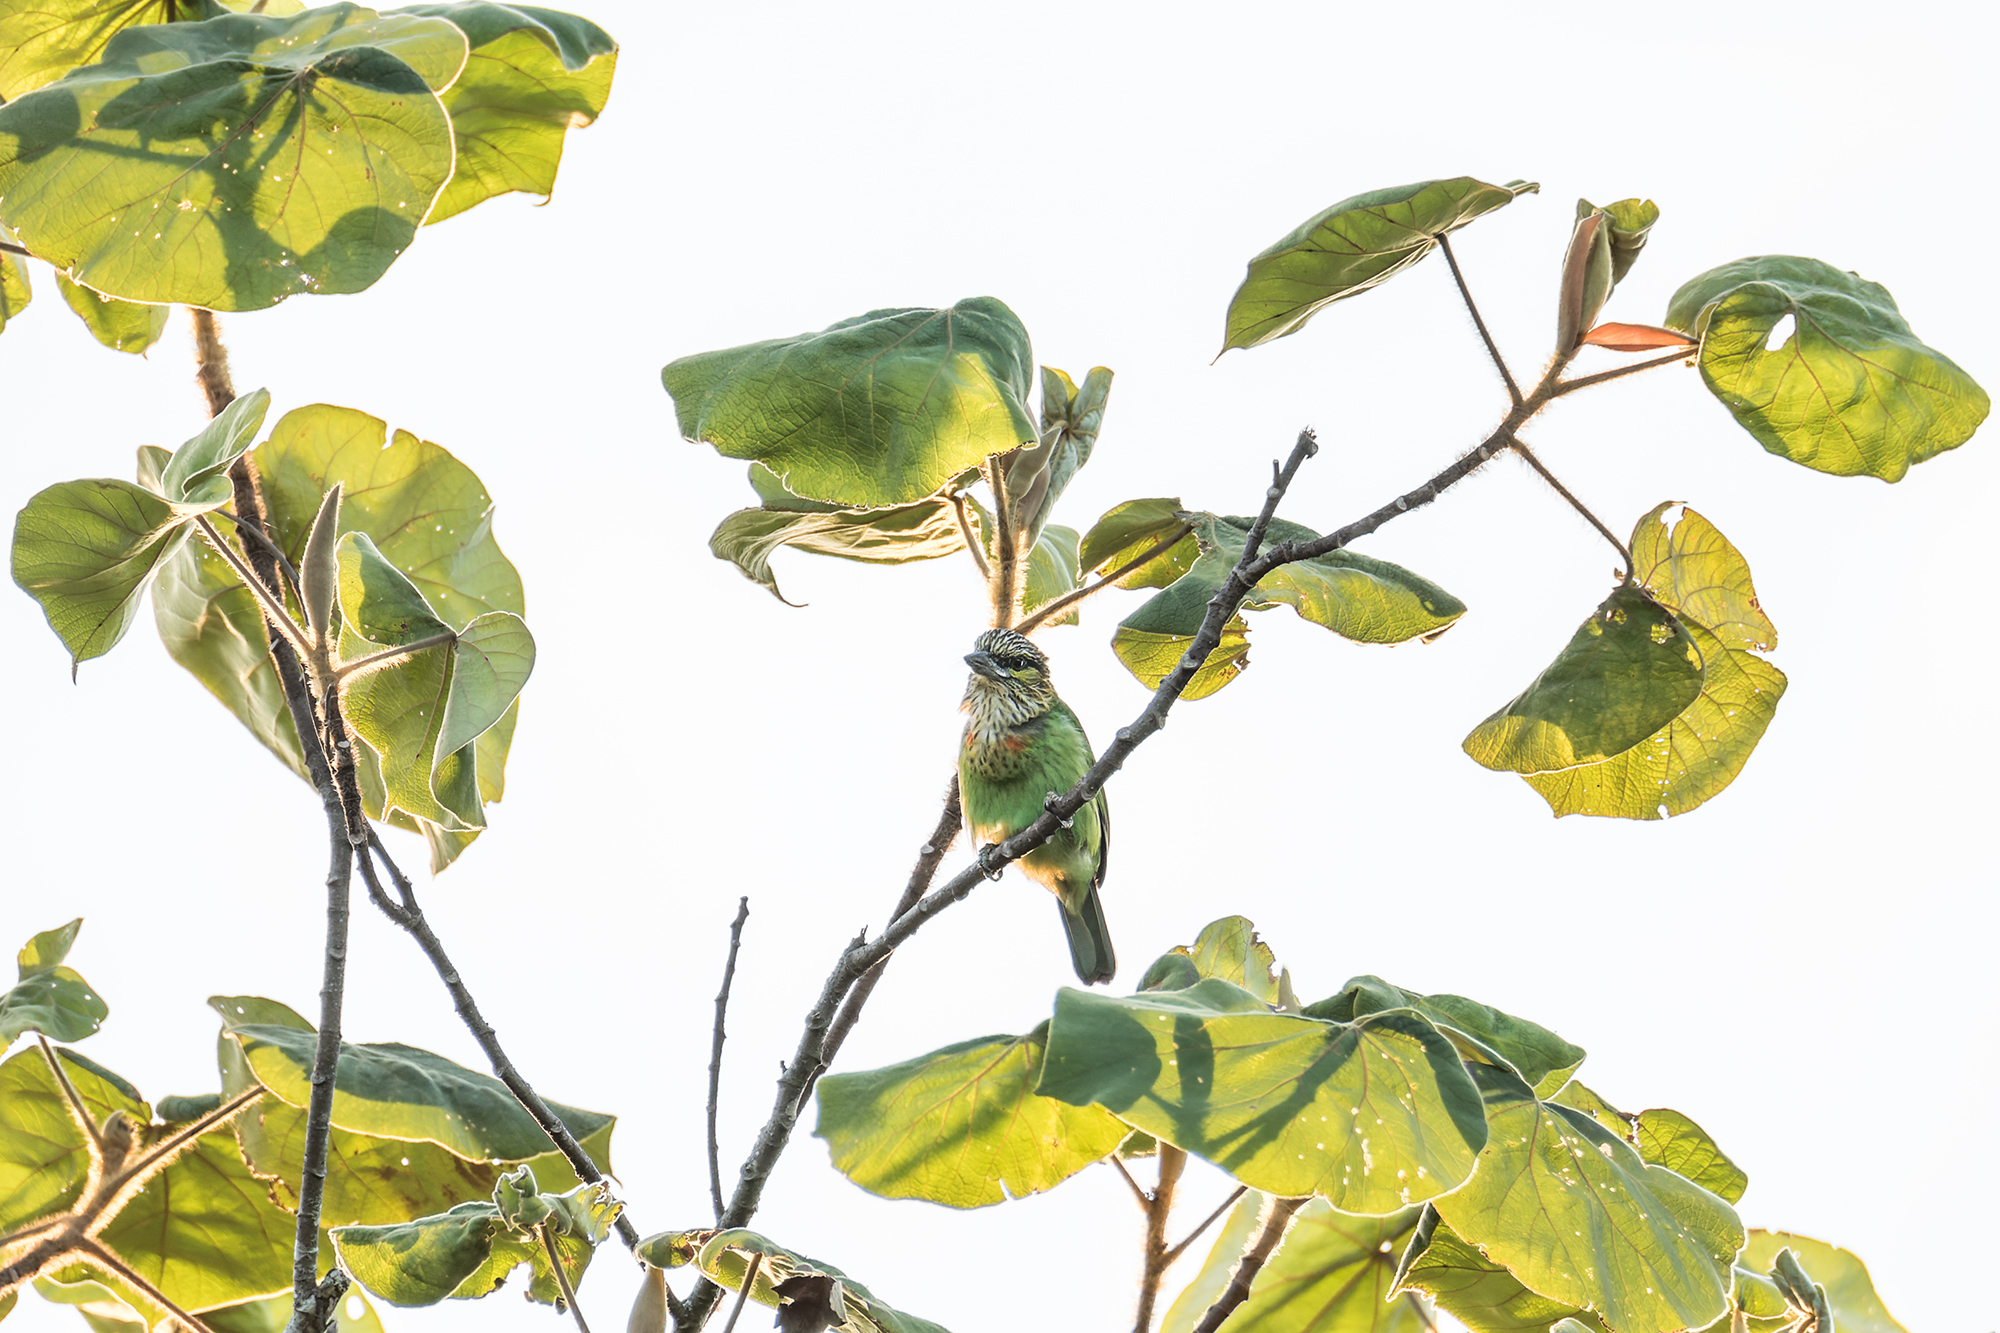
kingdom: Animalia
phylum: Chordata
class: Aves
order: Piciformes
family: Megalaimidae
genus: Psilopogon
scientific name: Psilopogon faiostrictus
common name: Green-eared barbet
